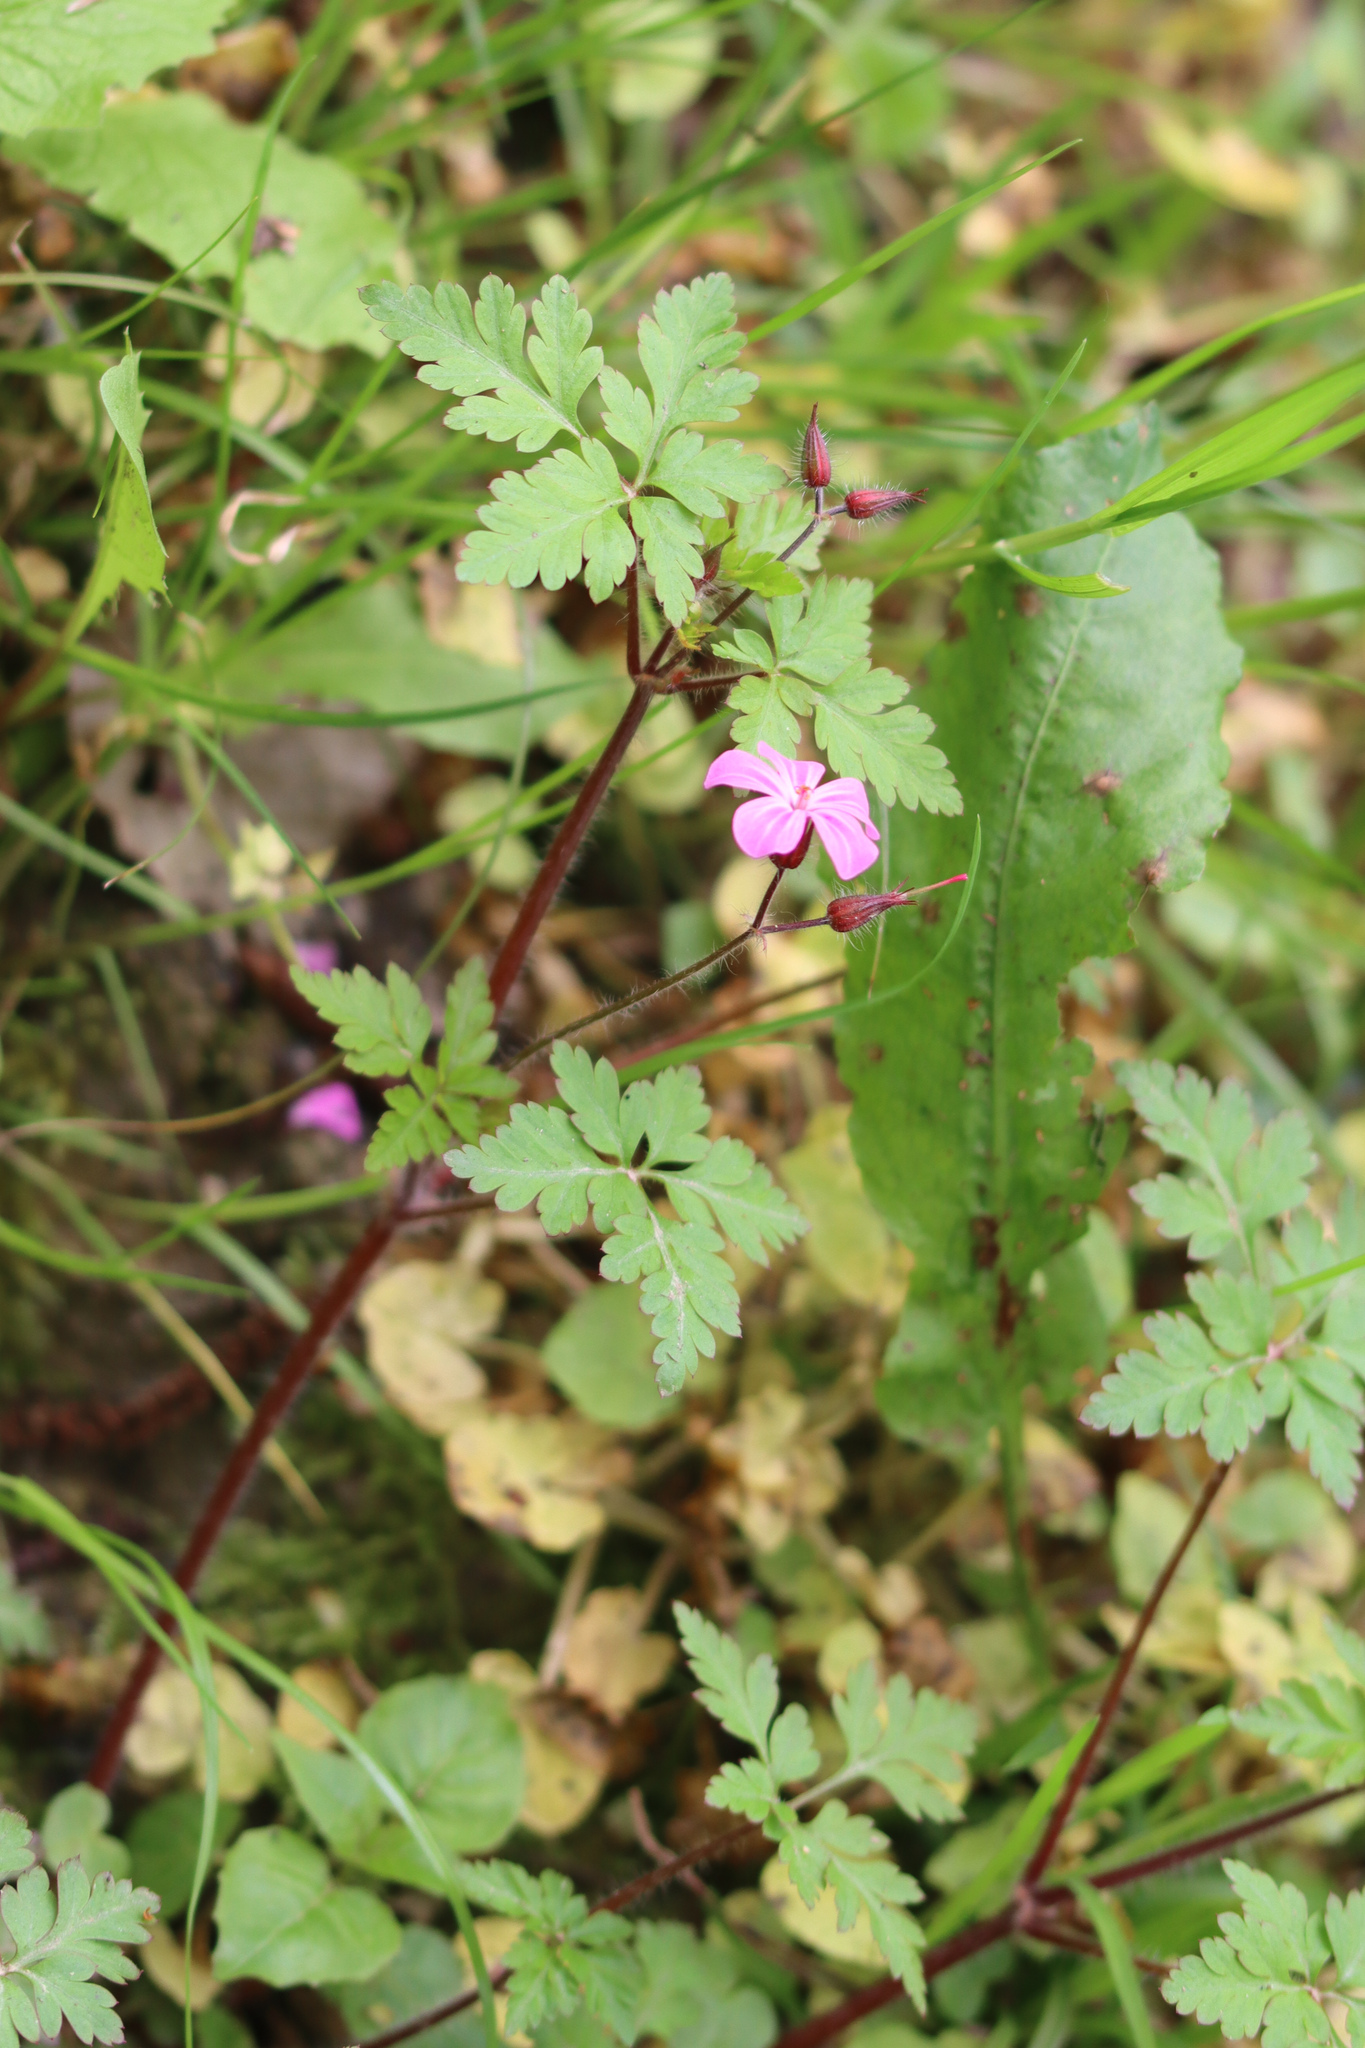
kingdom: Plantae
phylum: Tracheophyta
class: Magnoliopsida
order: Geraniales
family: Geraniaceae
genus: Geranium
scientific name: Geranium robertianum
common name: Herb-robert
